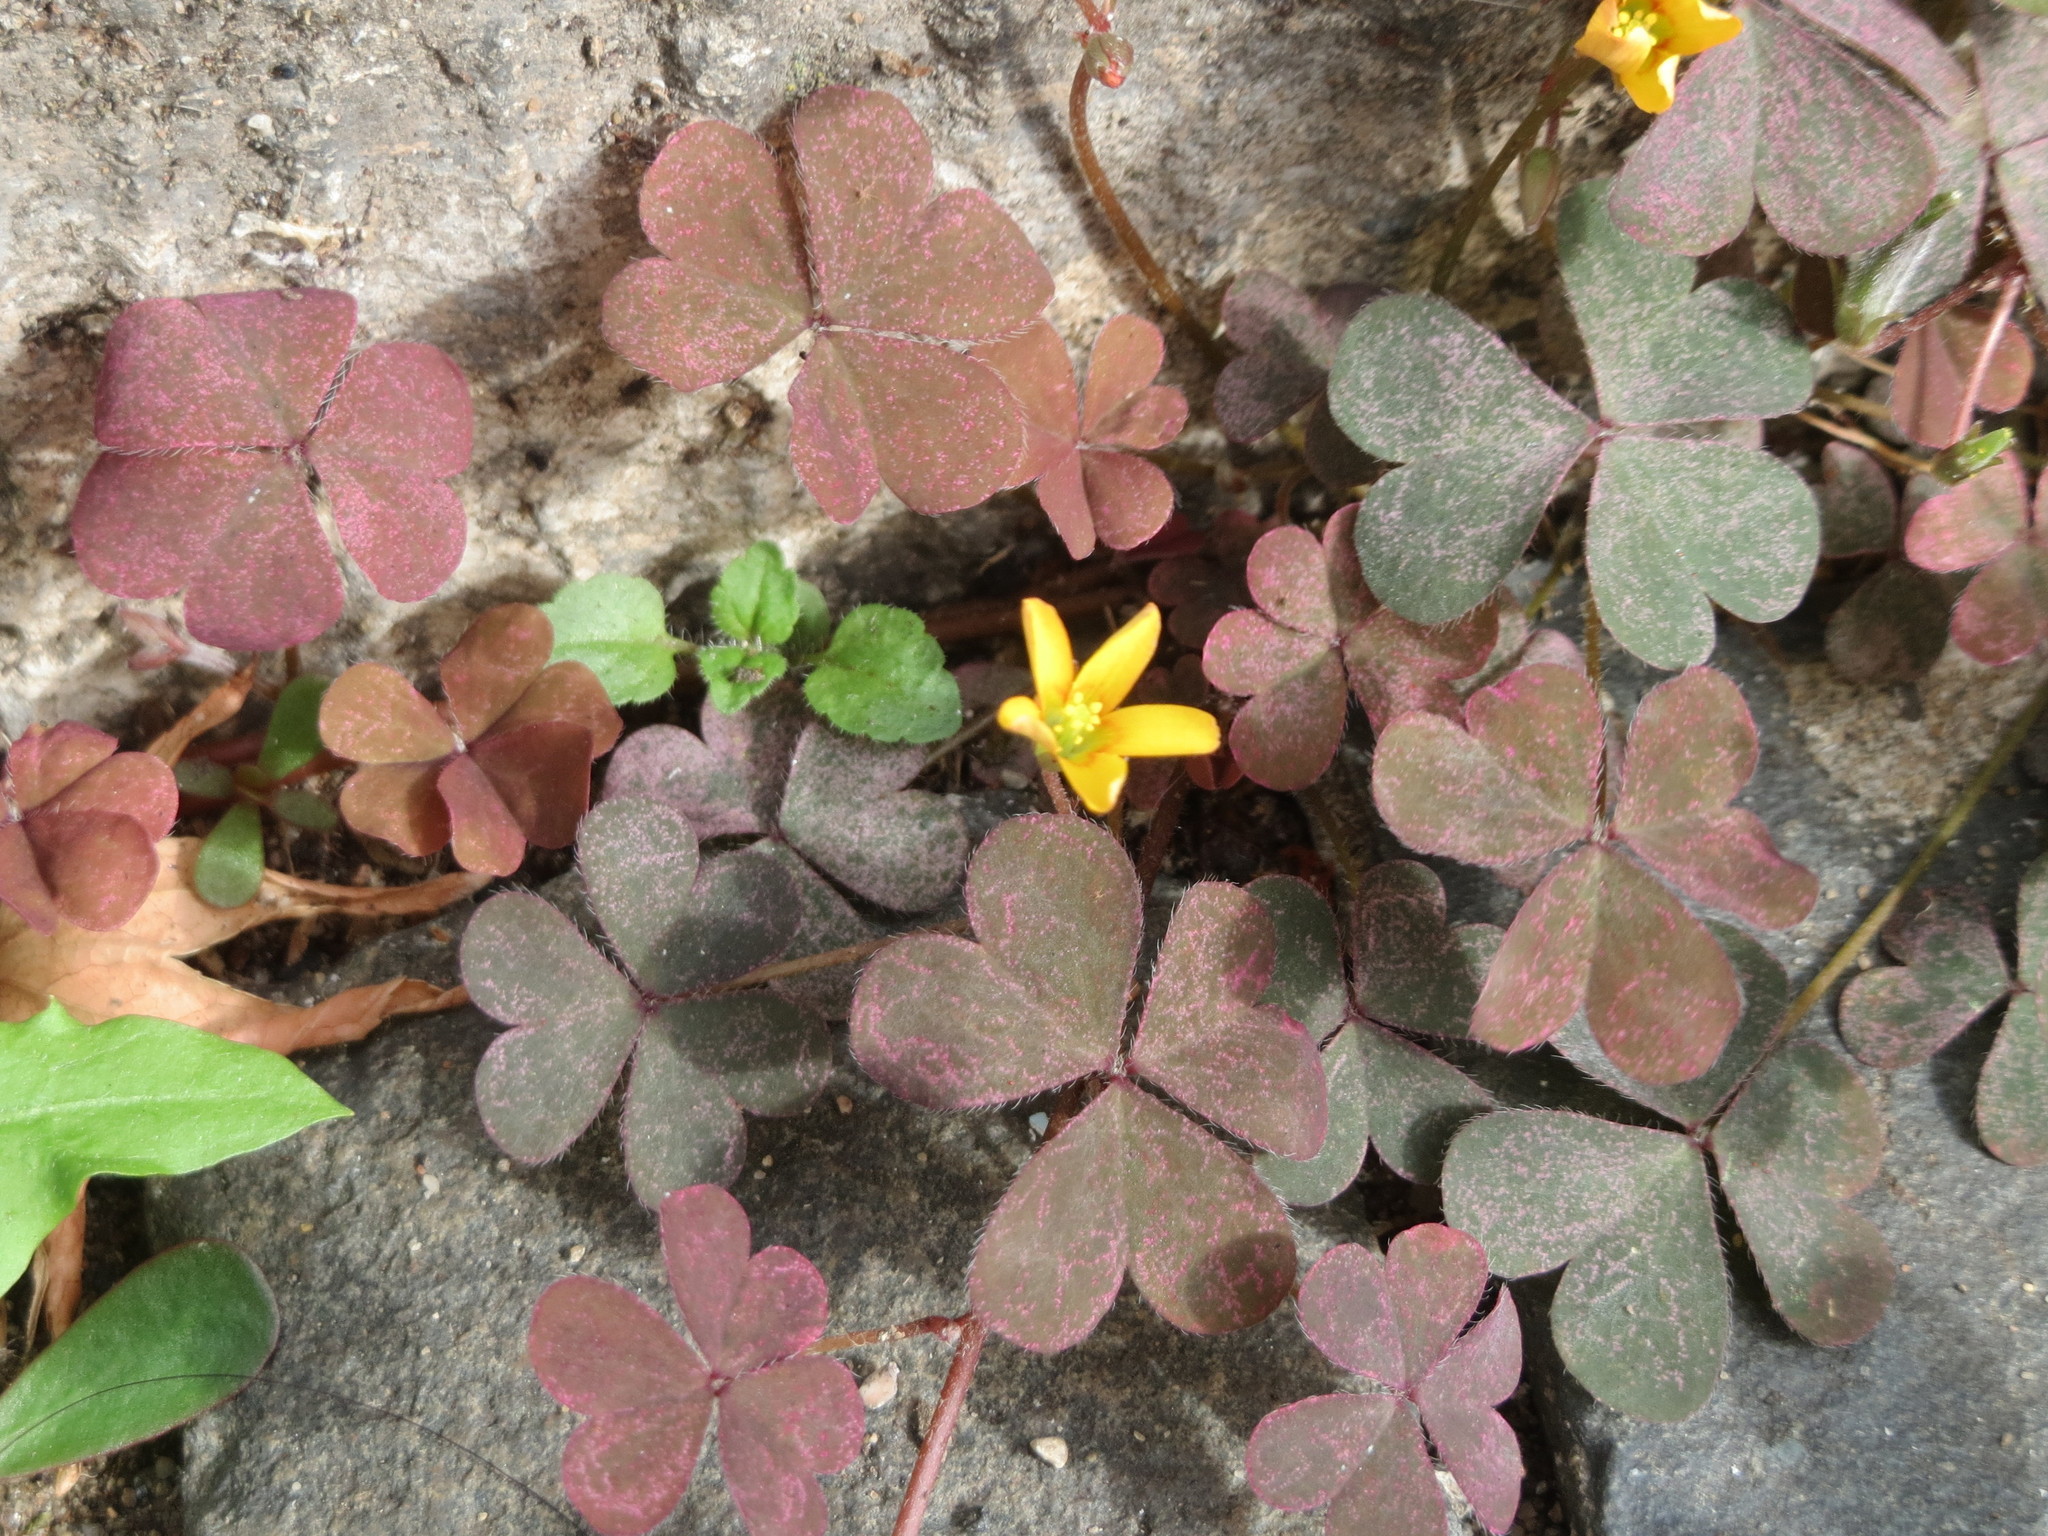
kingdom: Plantae
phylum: Tracheophyta
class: Magnoliopsida
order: Oxalidales
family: Oxalidaceae
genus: Oxalis
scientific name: Oxalis corniculata
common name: Procumbent yellow-sorrel
